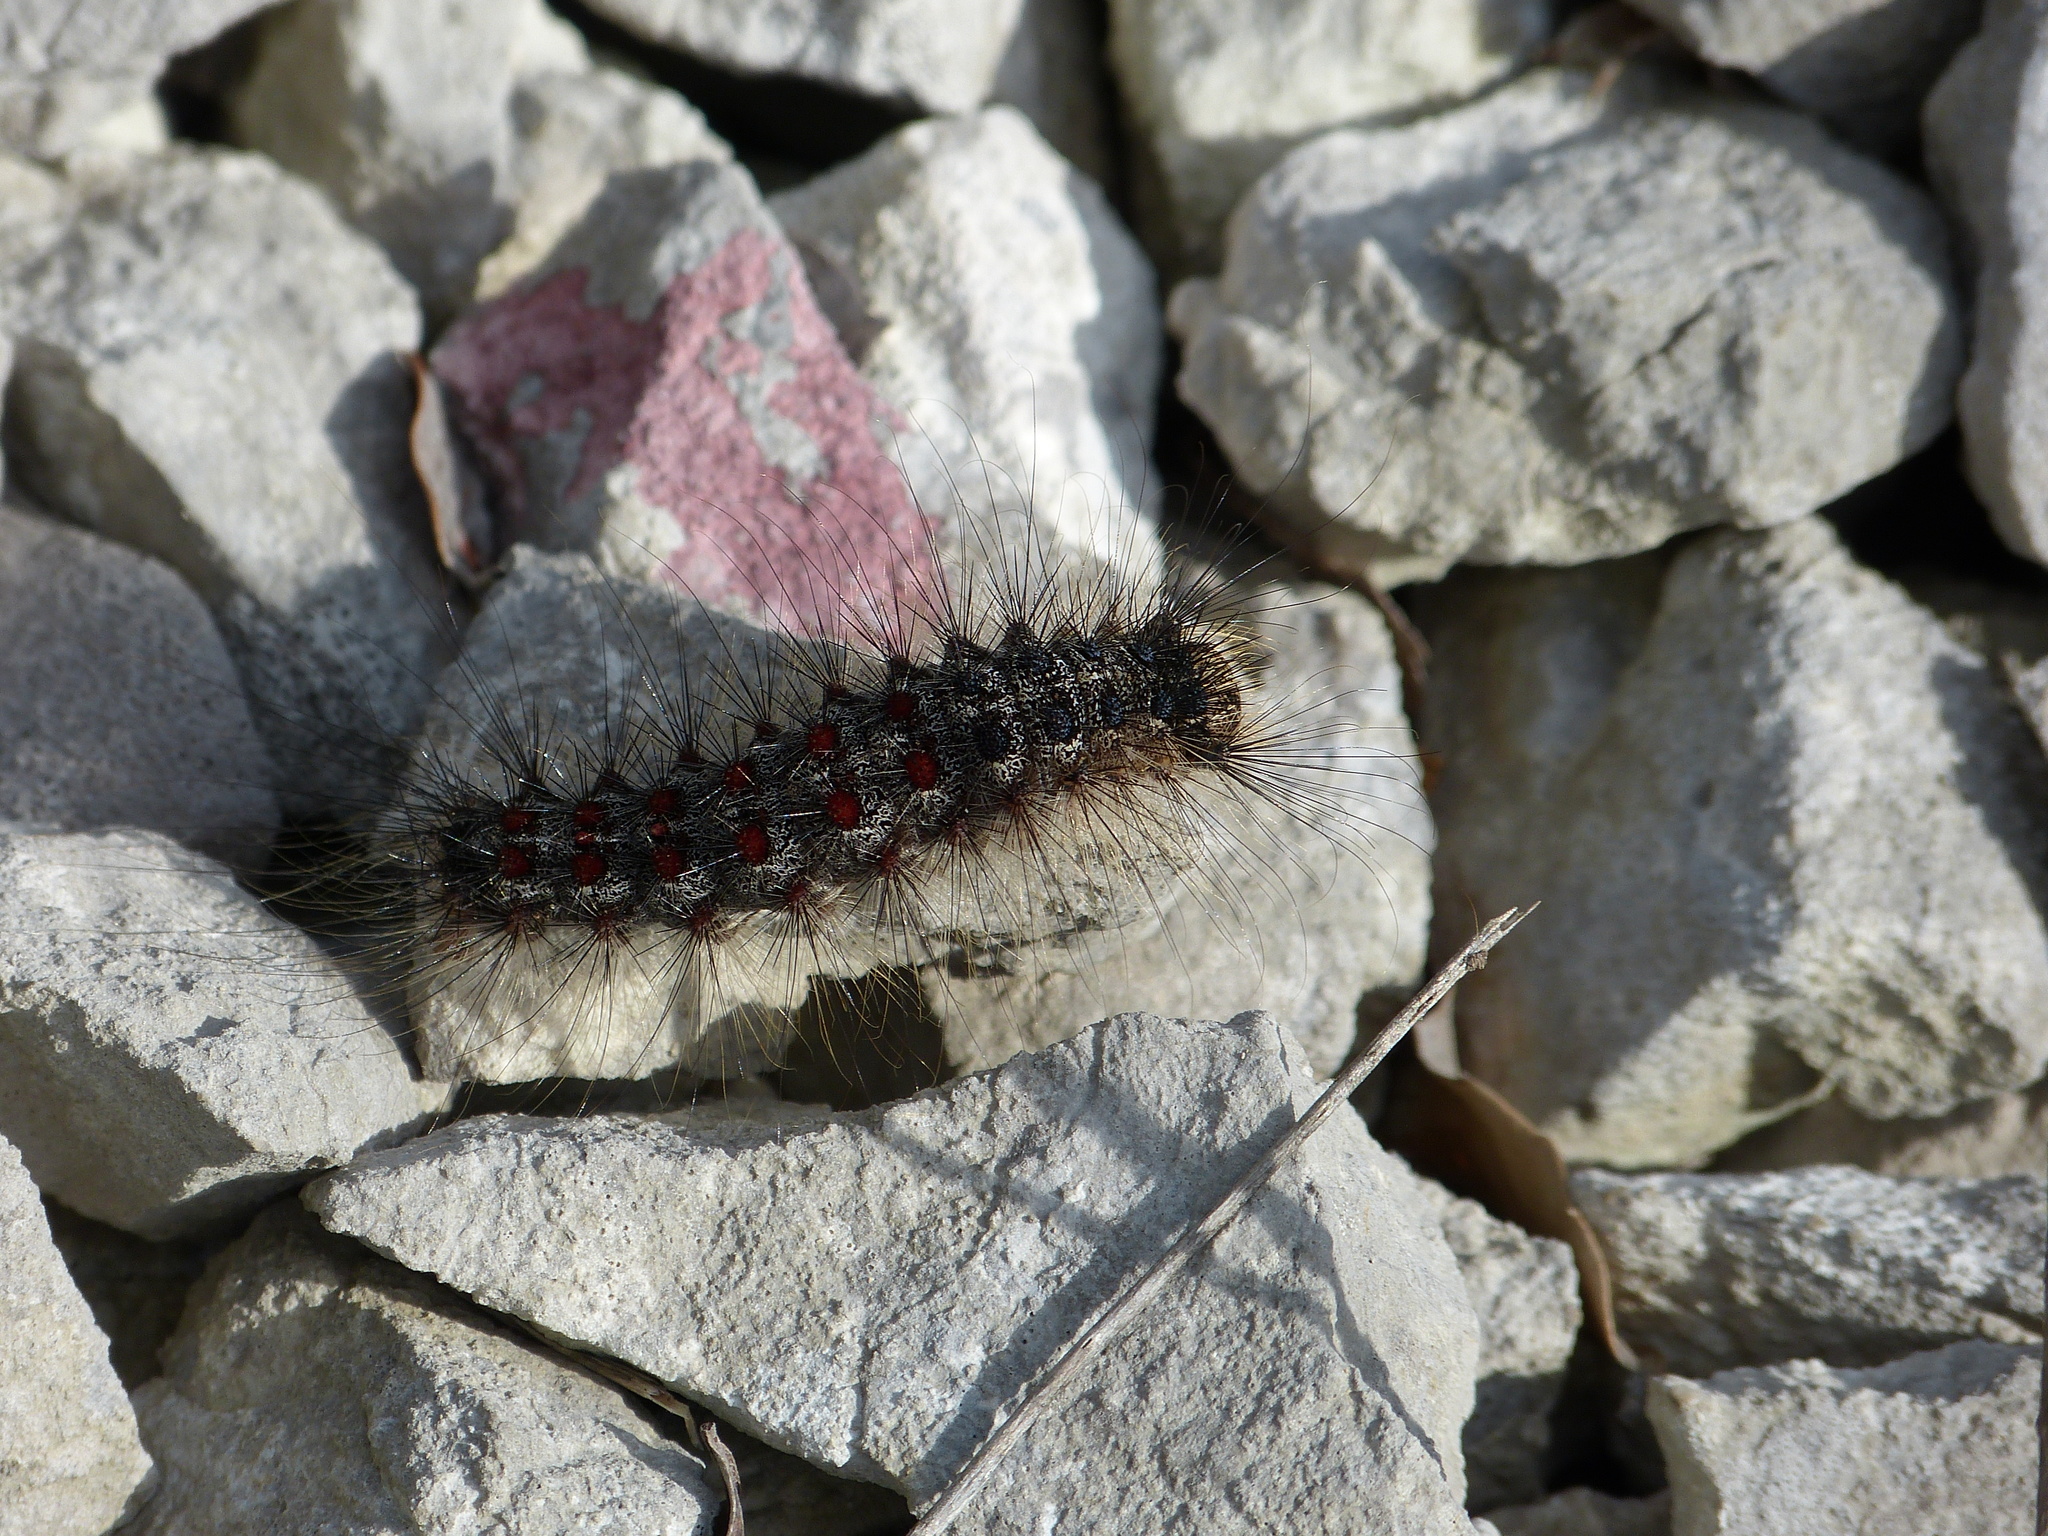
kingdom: Animalia
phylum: Arthropoda
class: Insecta
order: Lepidoptera
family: Erebidae
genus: Lymantria
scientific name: Lymantria dispar
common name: Gypsy moth
